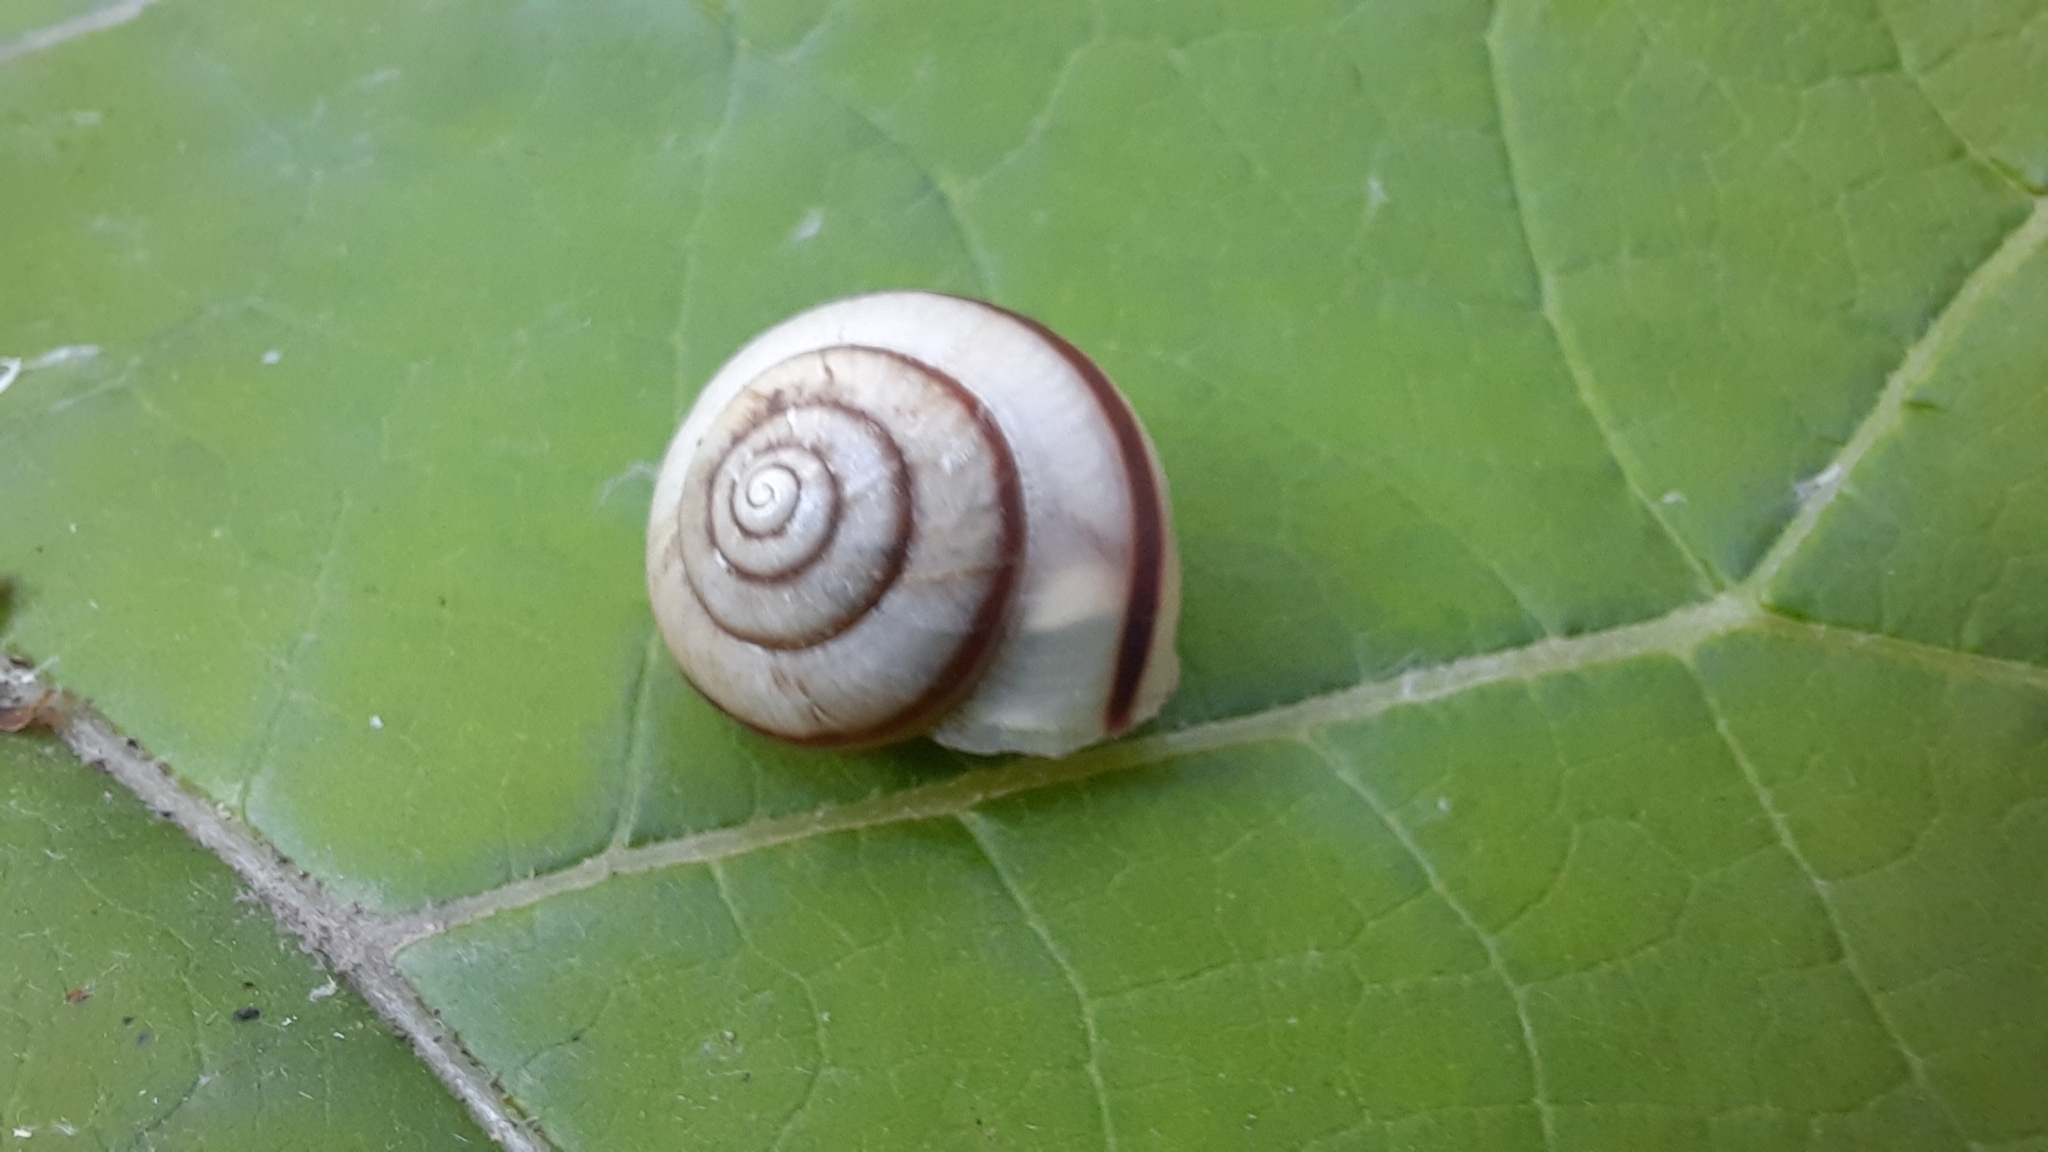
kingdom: Animalia
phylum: Mollusca
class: Gastropoda
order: Stylommatophora
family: Camaenidae
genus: Fruticicola
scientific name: Fruticicola fruticum
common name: Bush snail
